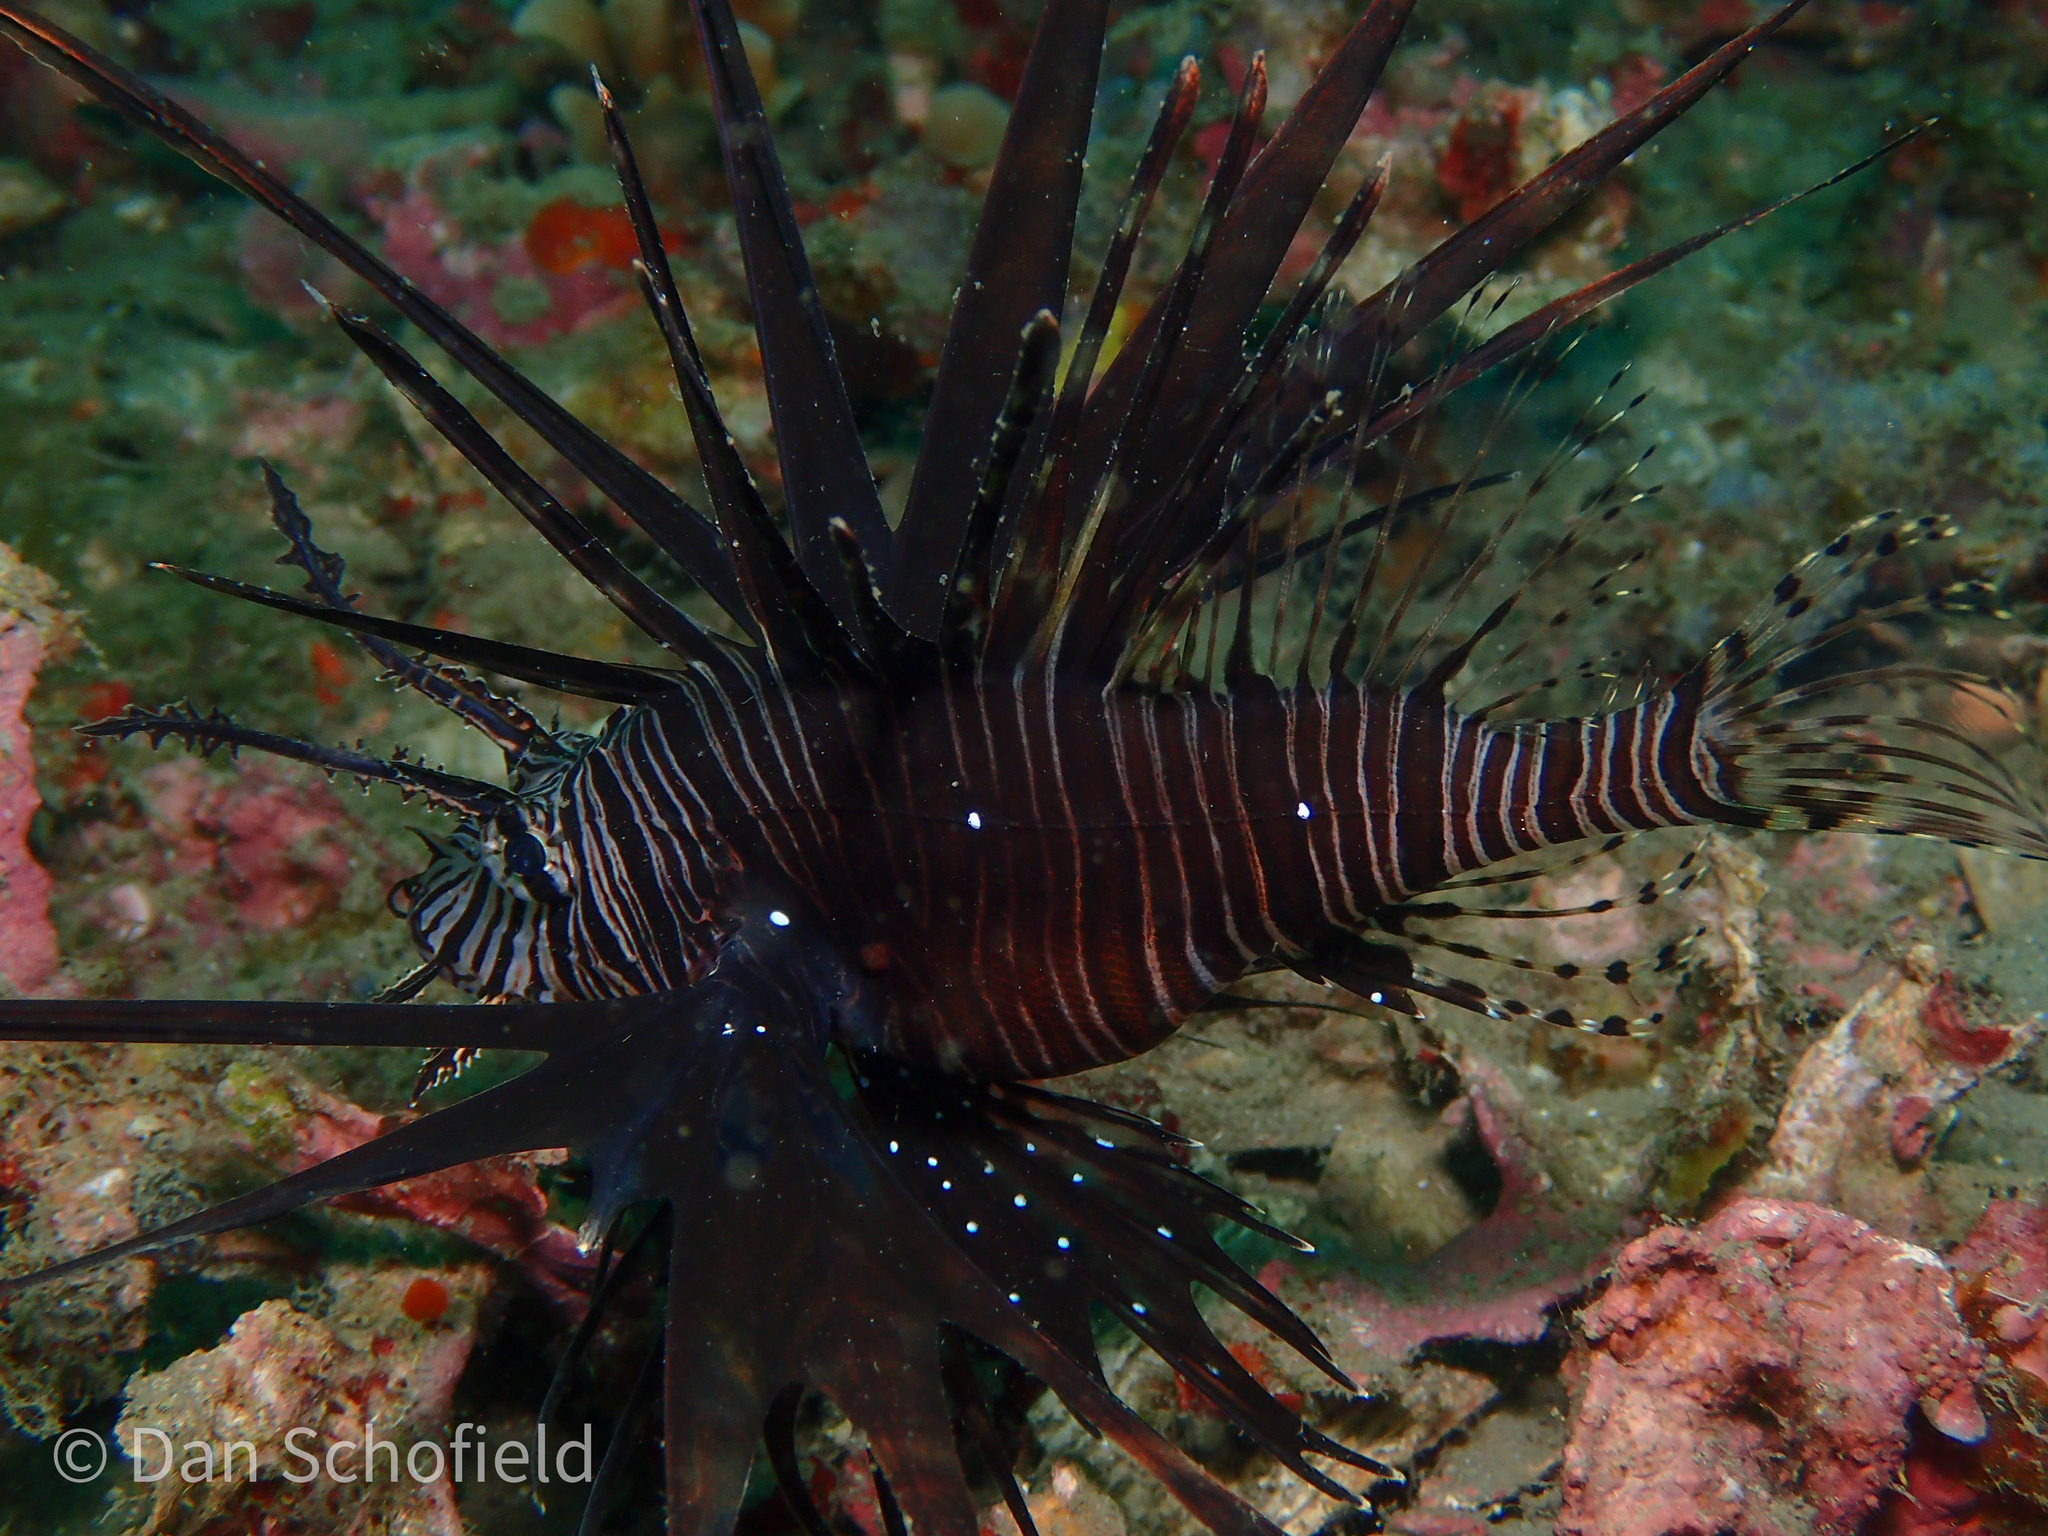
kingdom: Animalia
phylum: Chordata
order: Scorpaeniformes
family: Scorpaenidae
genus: Pterois
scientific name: Pterois volitans
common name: Lionfish
